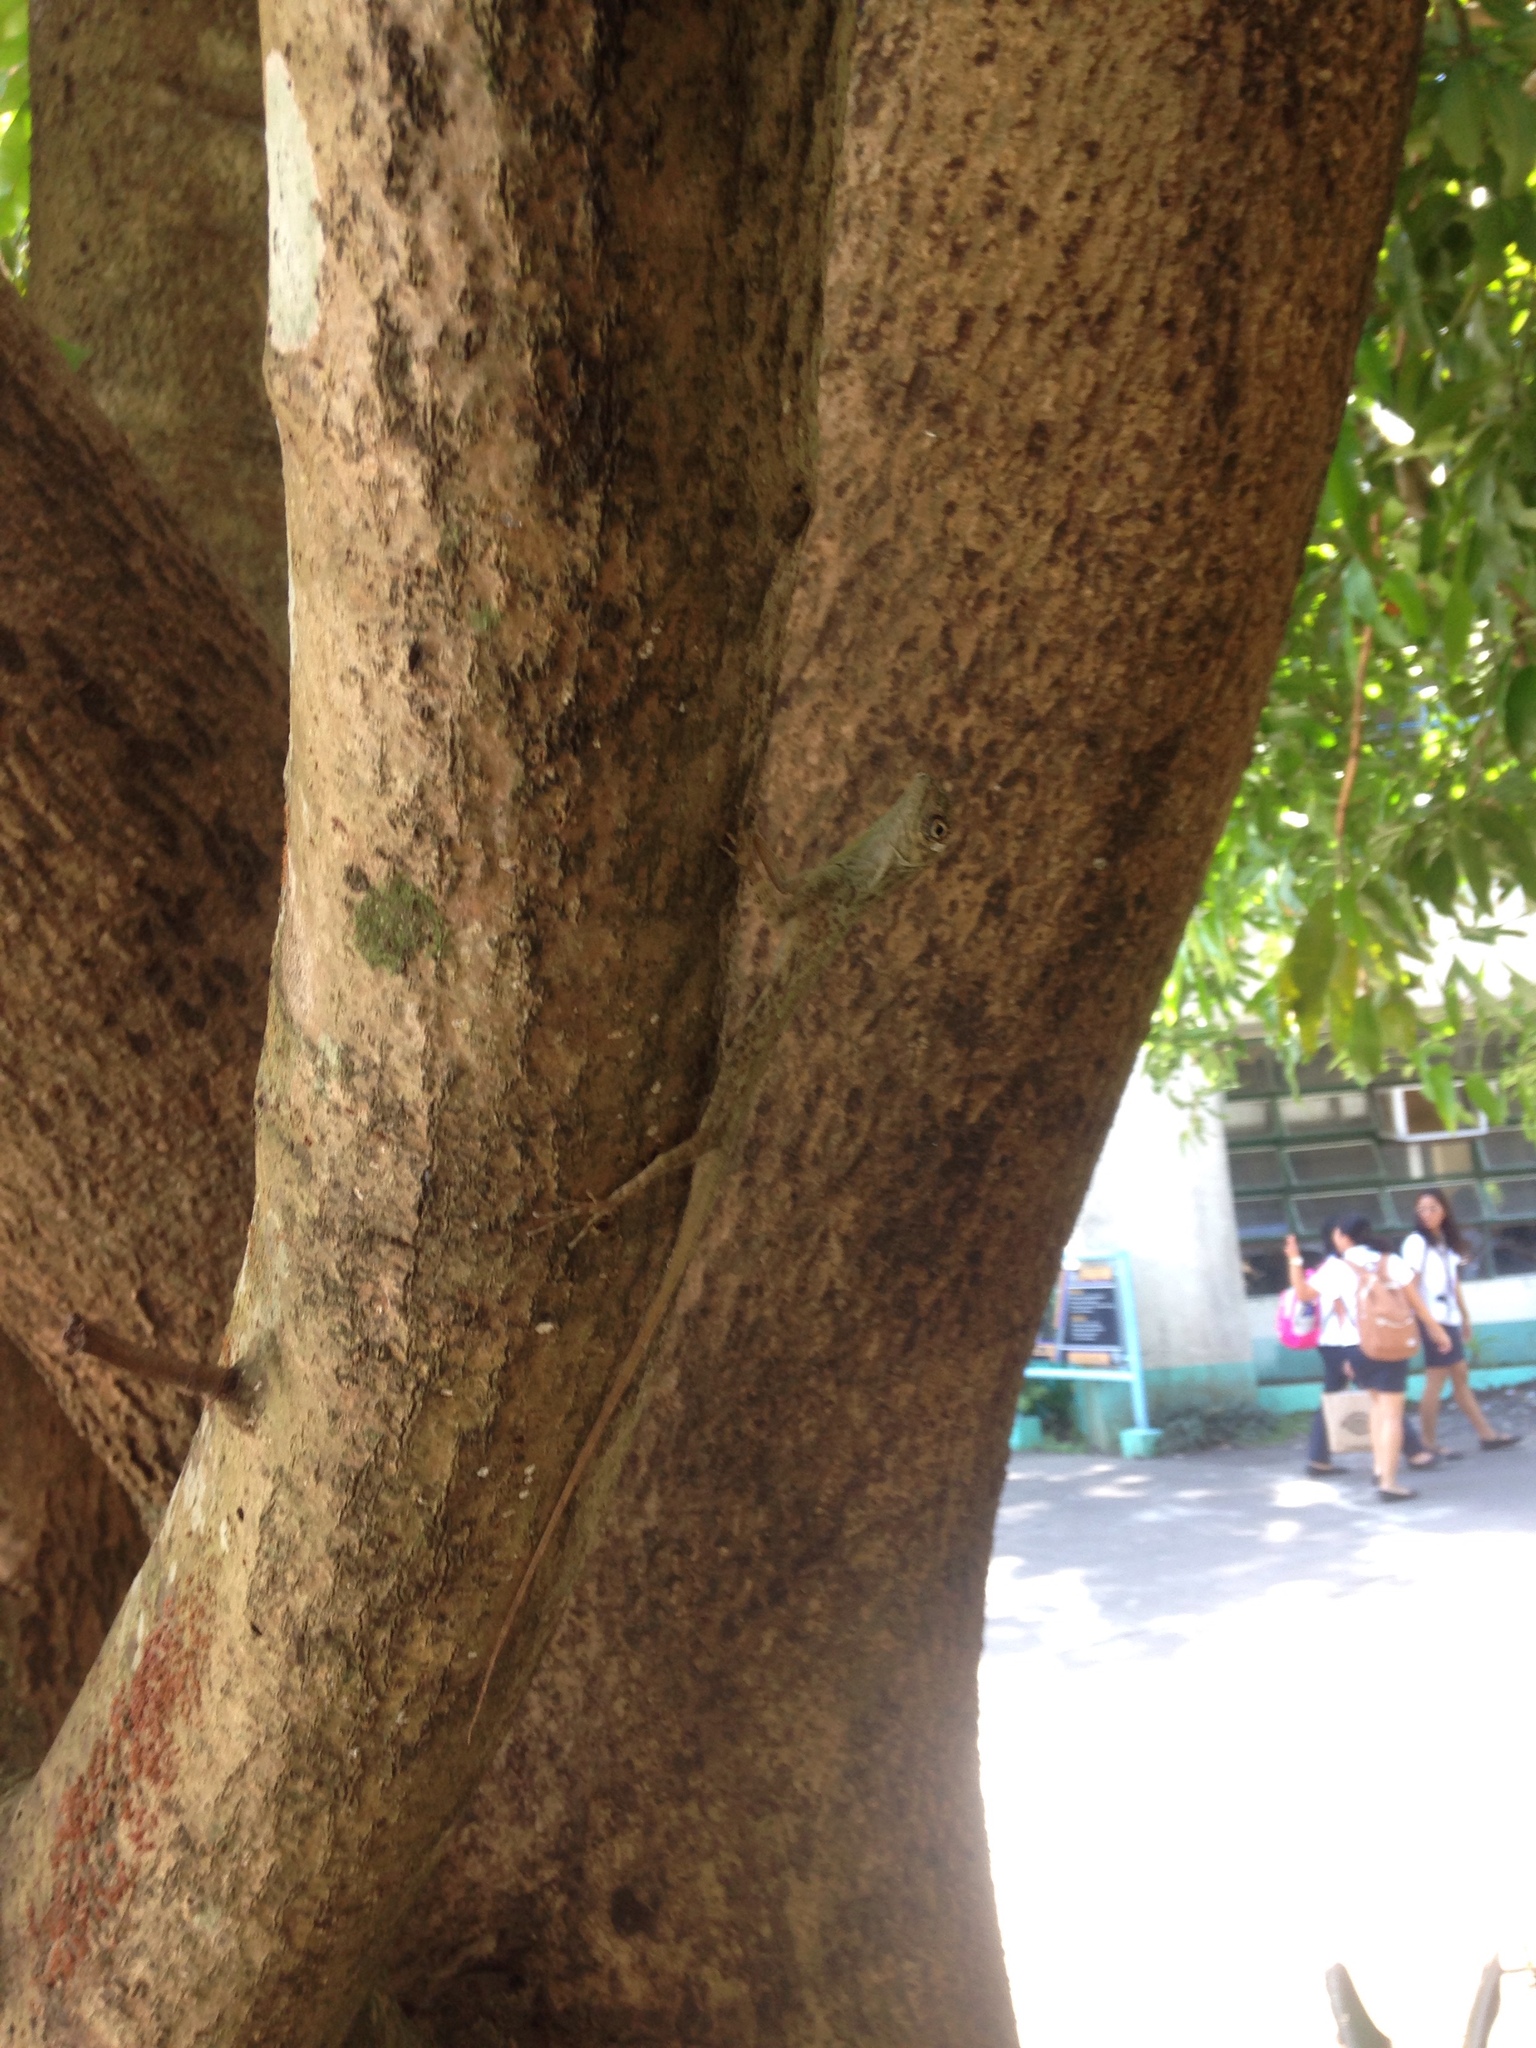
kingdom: Animalia
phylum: Chordata
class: Squamata
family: Agamidae
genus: Draco
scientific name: Draco spilopterus
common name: Philippine flying dragon
